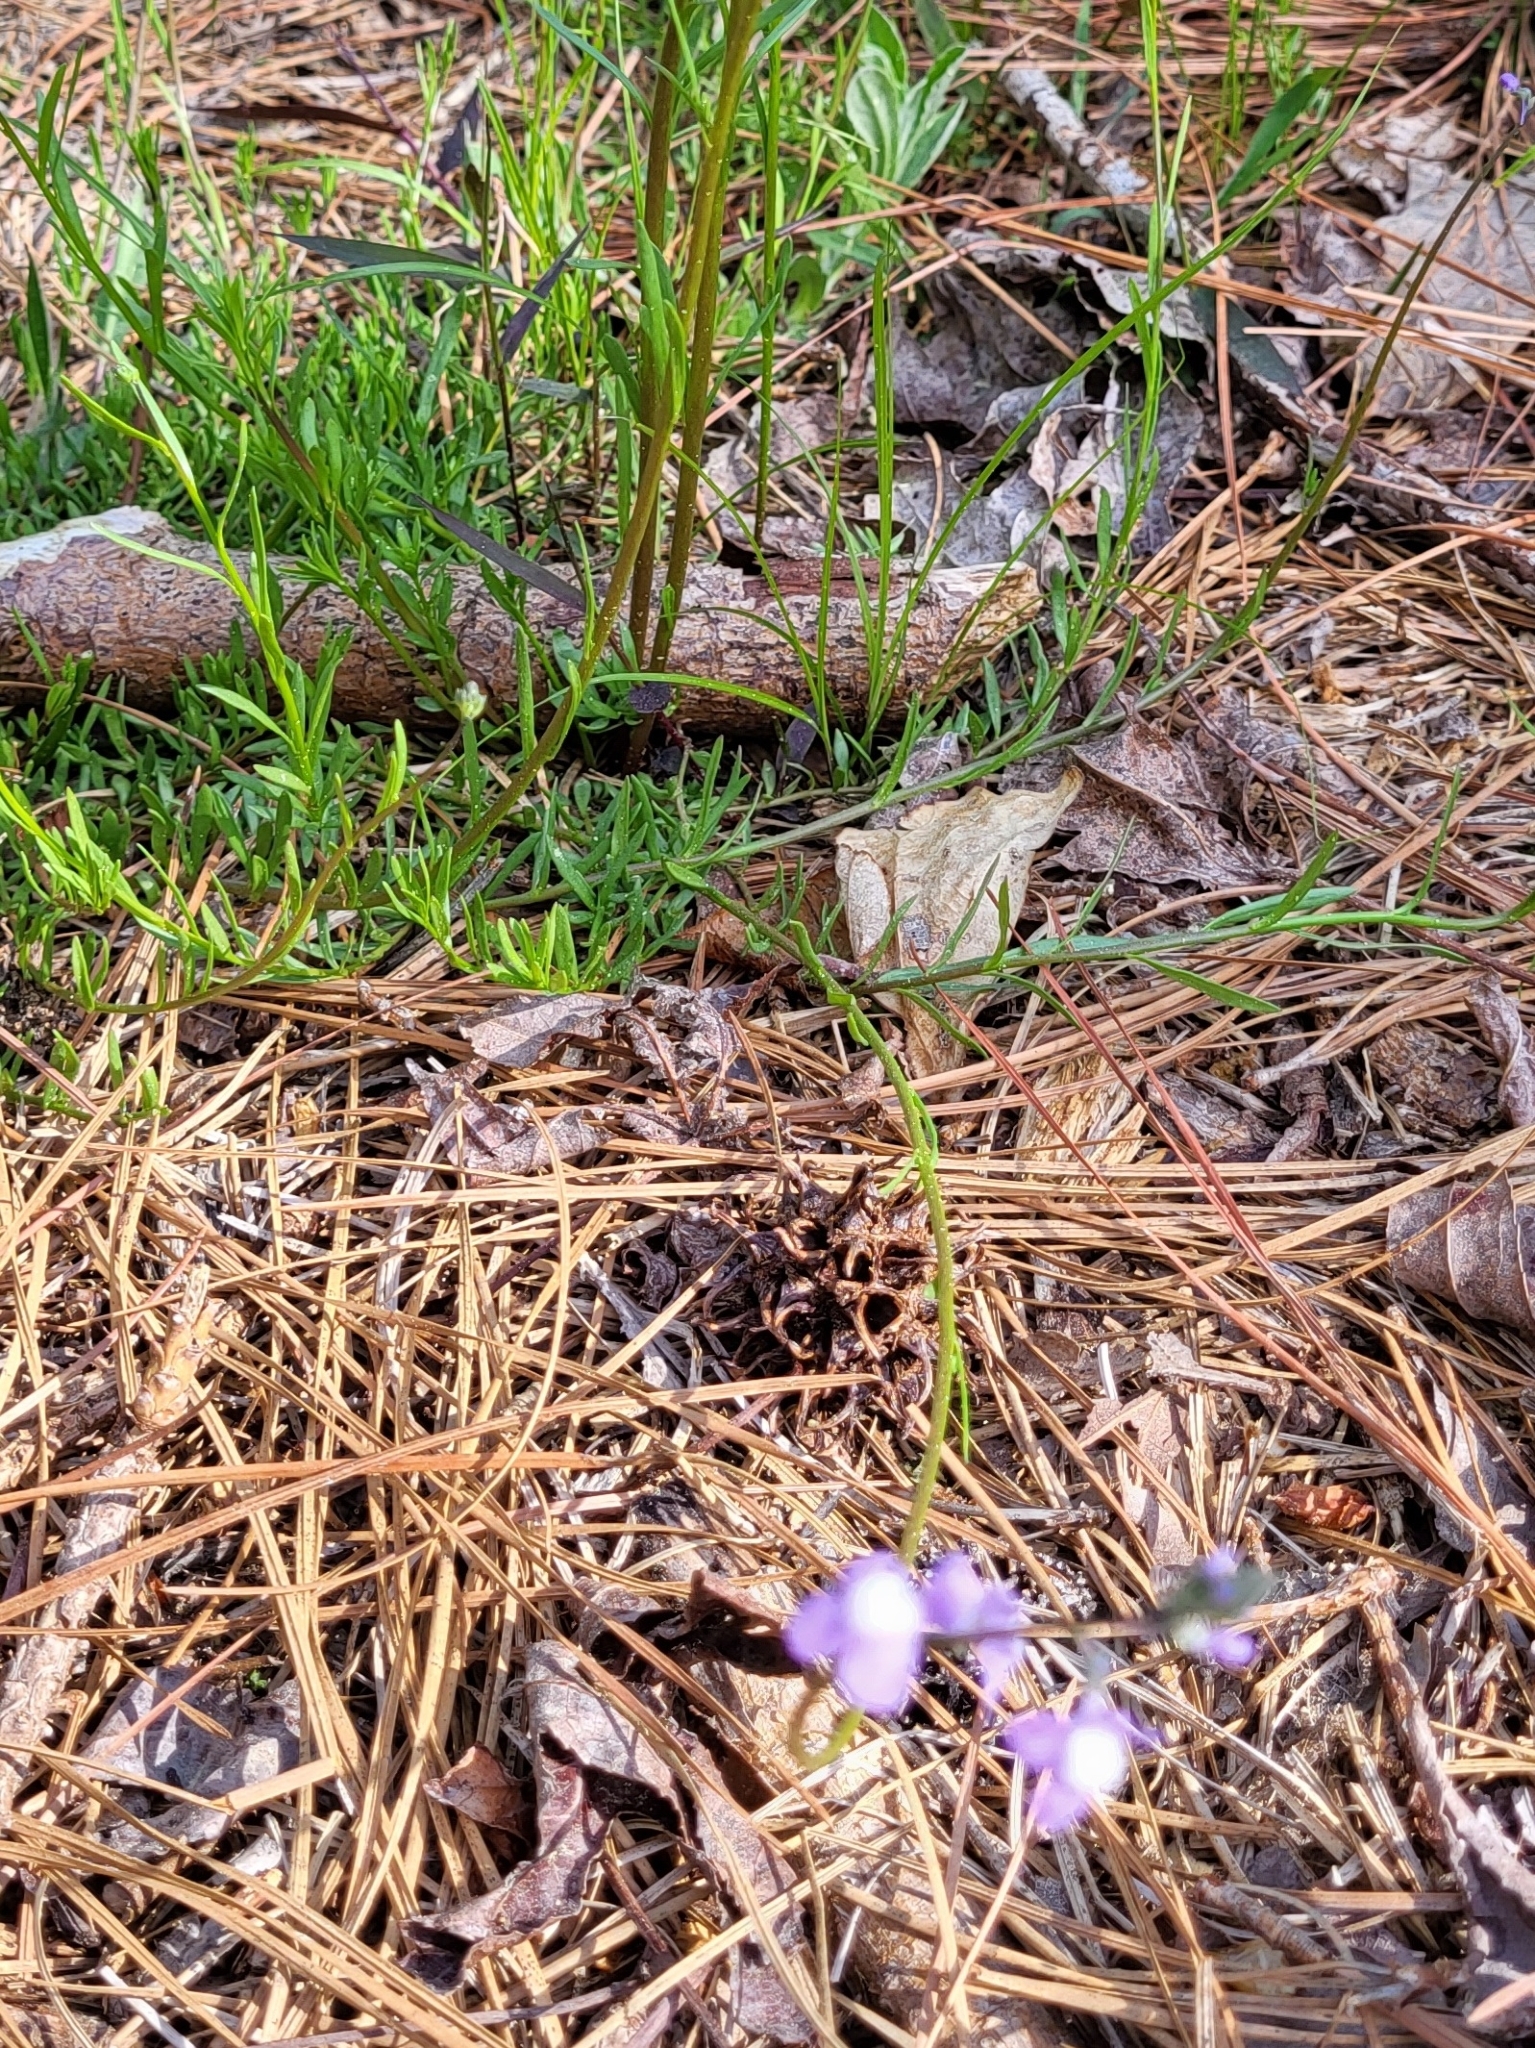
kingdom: Plantae
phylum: Tracheophyta
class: Magnoliopsida
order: Lamiales
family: Plantaginaceae
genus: Nuttallanthus
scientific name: Nuttallanthus canadensis
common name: Blue toadflax
